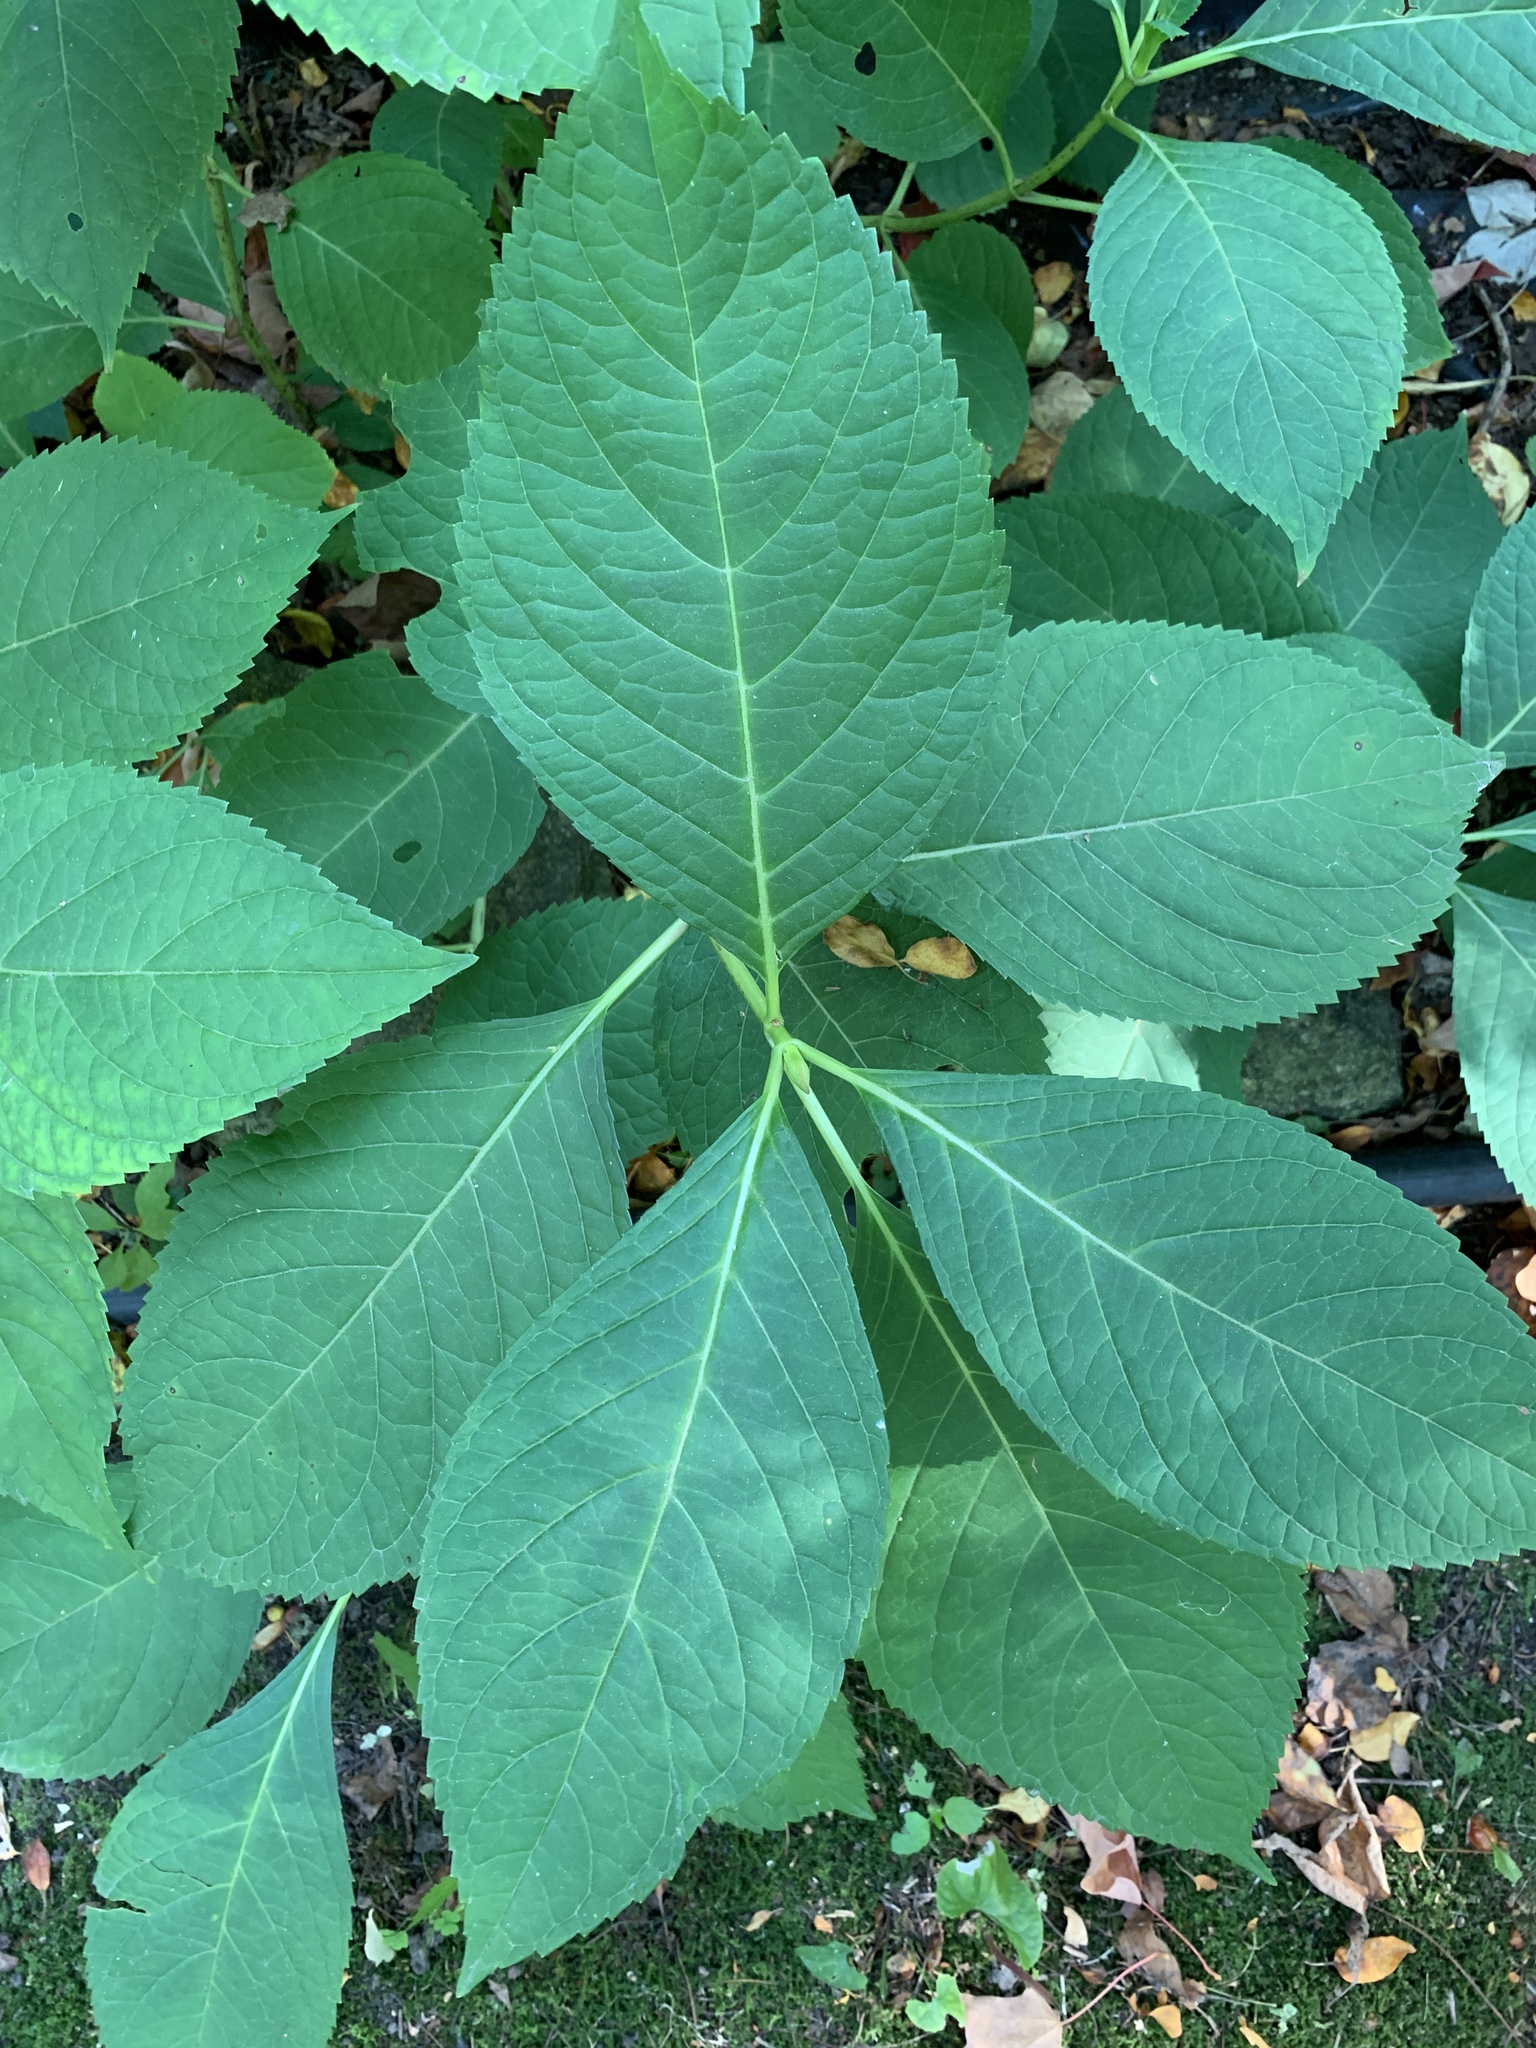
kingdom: Plantae
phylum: Tracheophyta
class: Magnoliopsida
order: Cornales
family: Hydrangeaceae
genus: Hydrangea
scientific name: Hydrangea macrophylla
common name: Hydrangea
